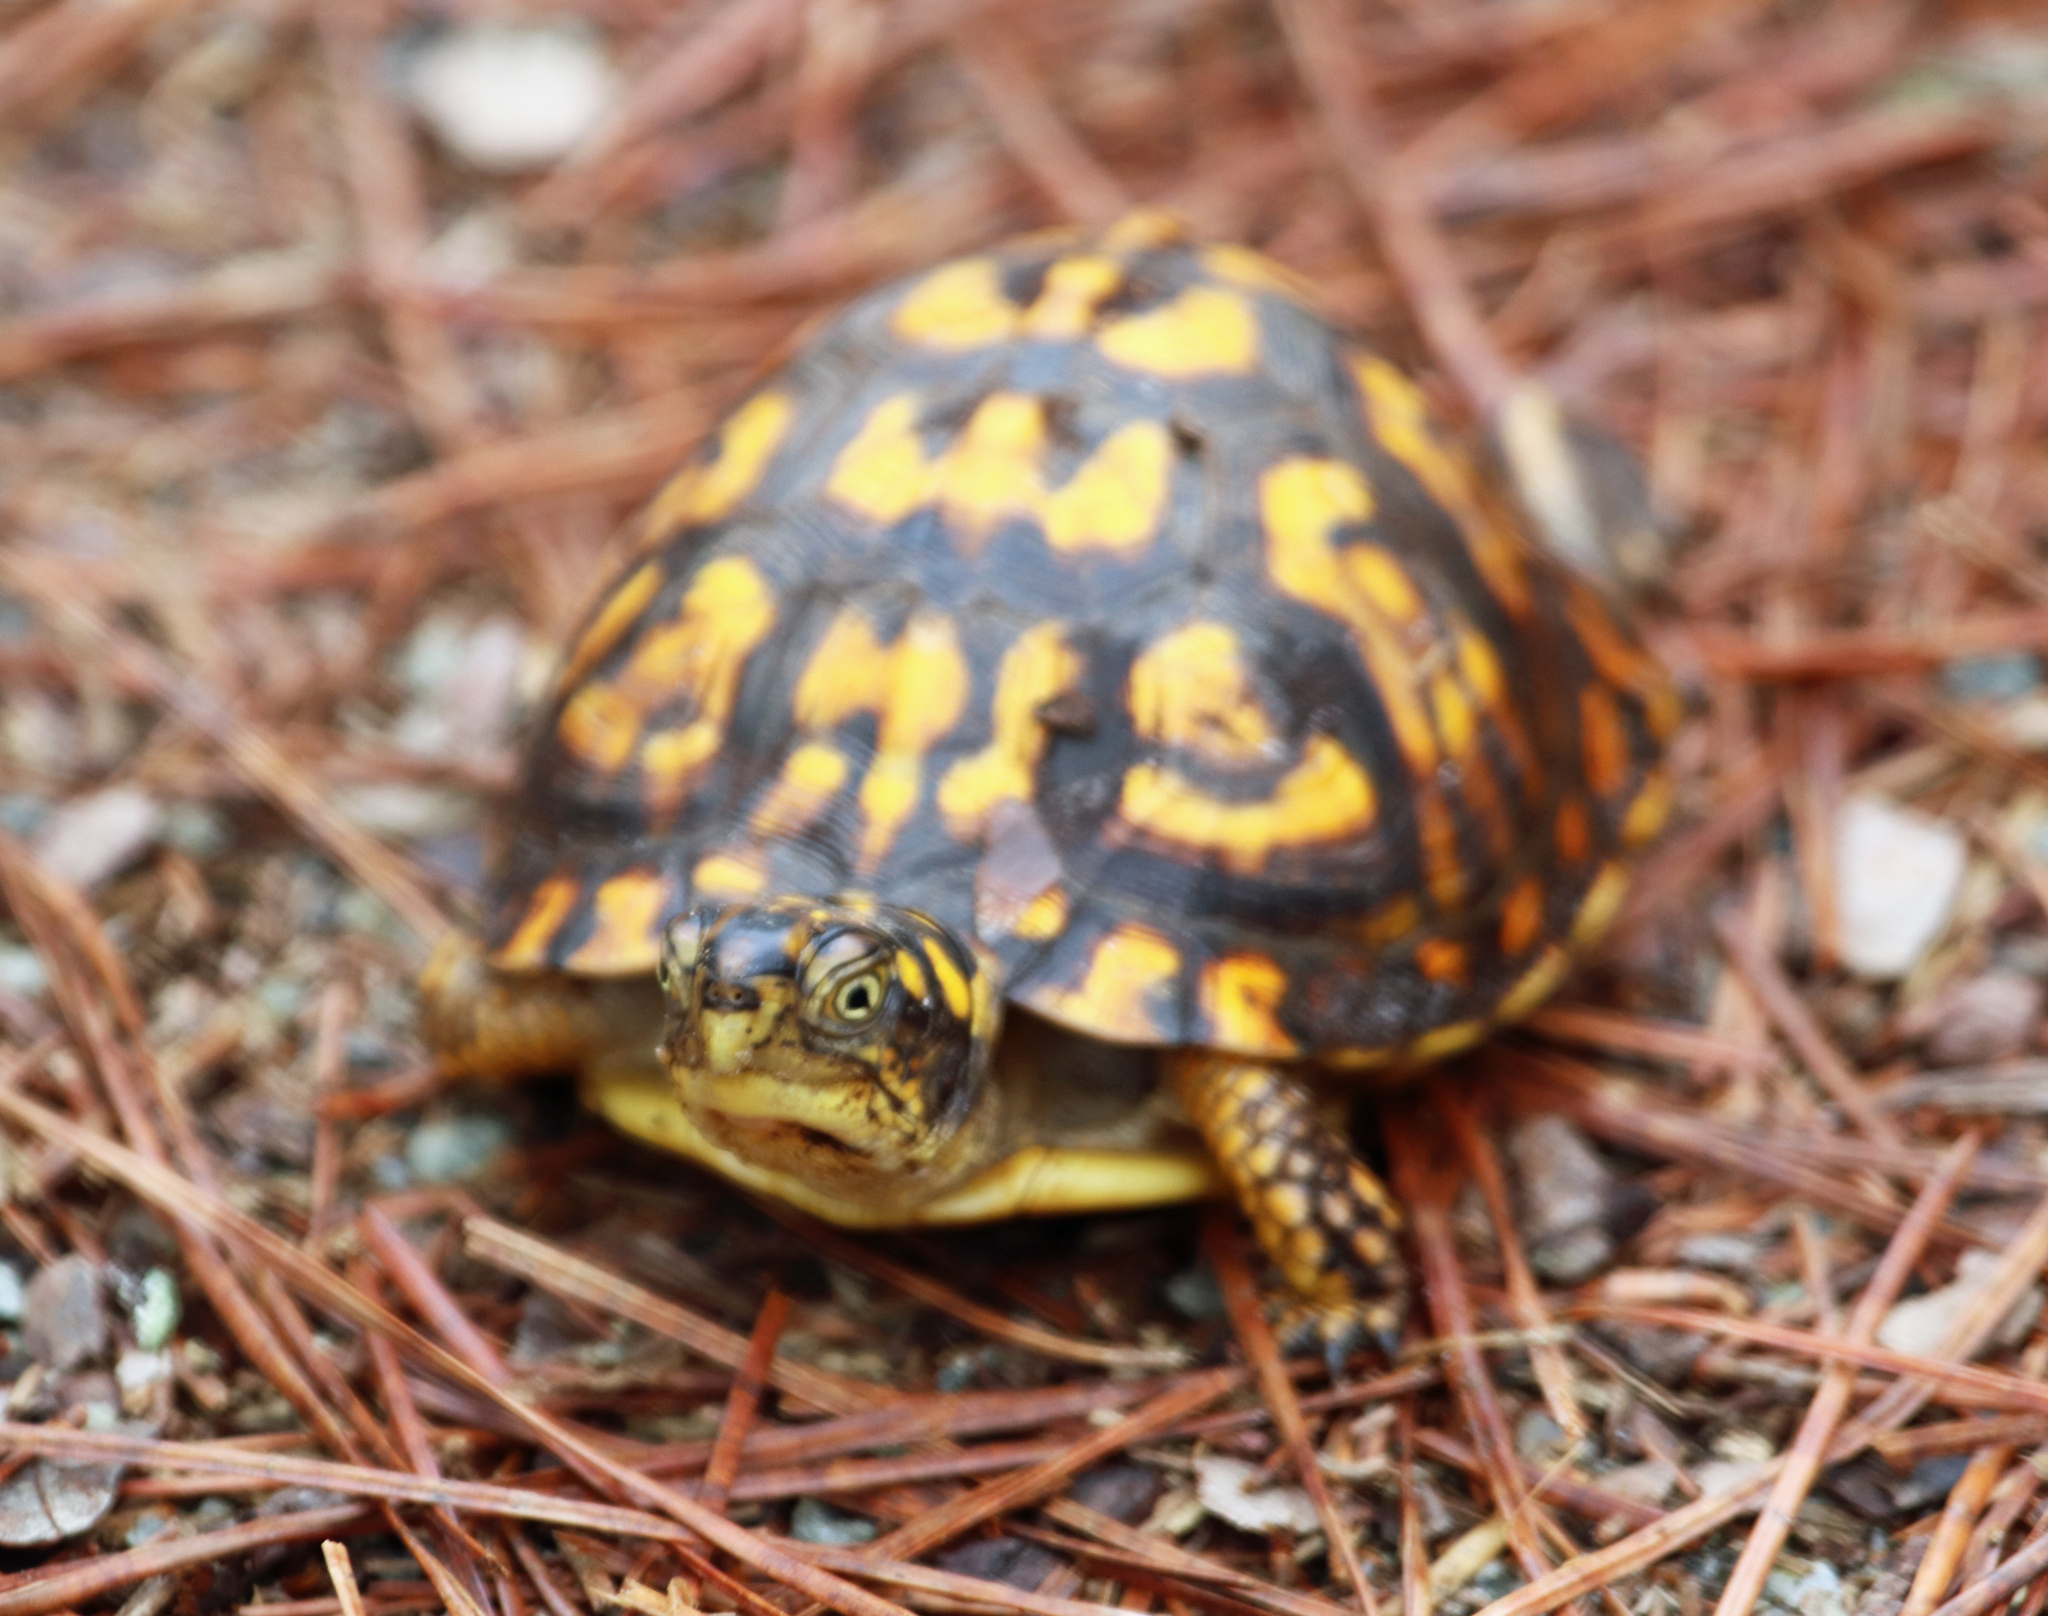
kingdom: Animalia
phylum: Chordata
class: Testudines
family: Emydidae
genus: Terrapene
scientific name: Terrapene carolina
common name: Common box turtle
